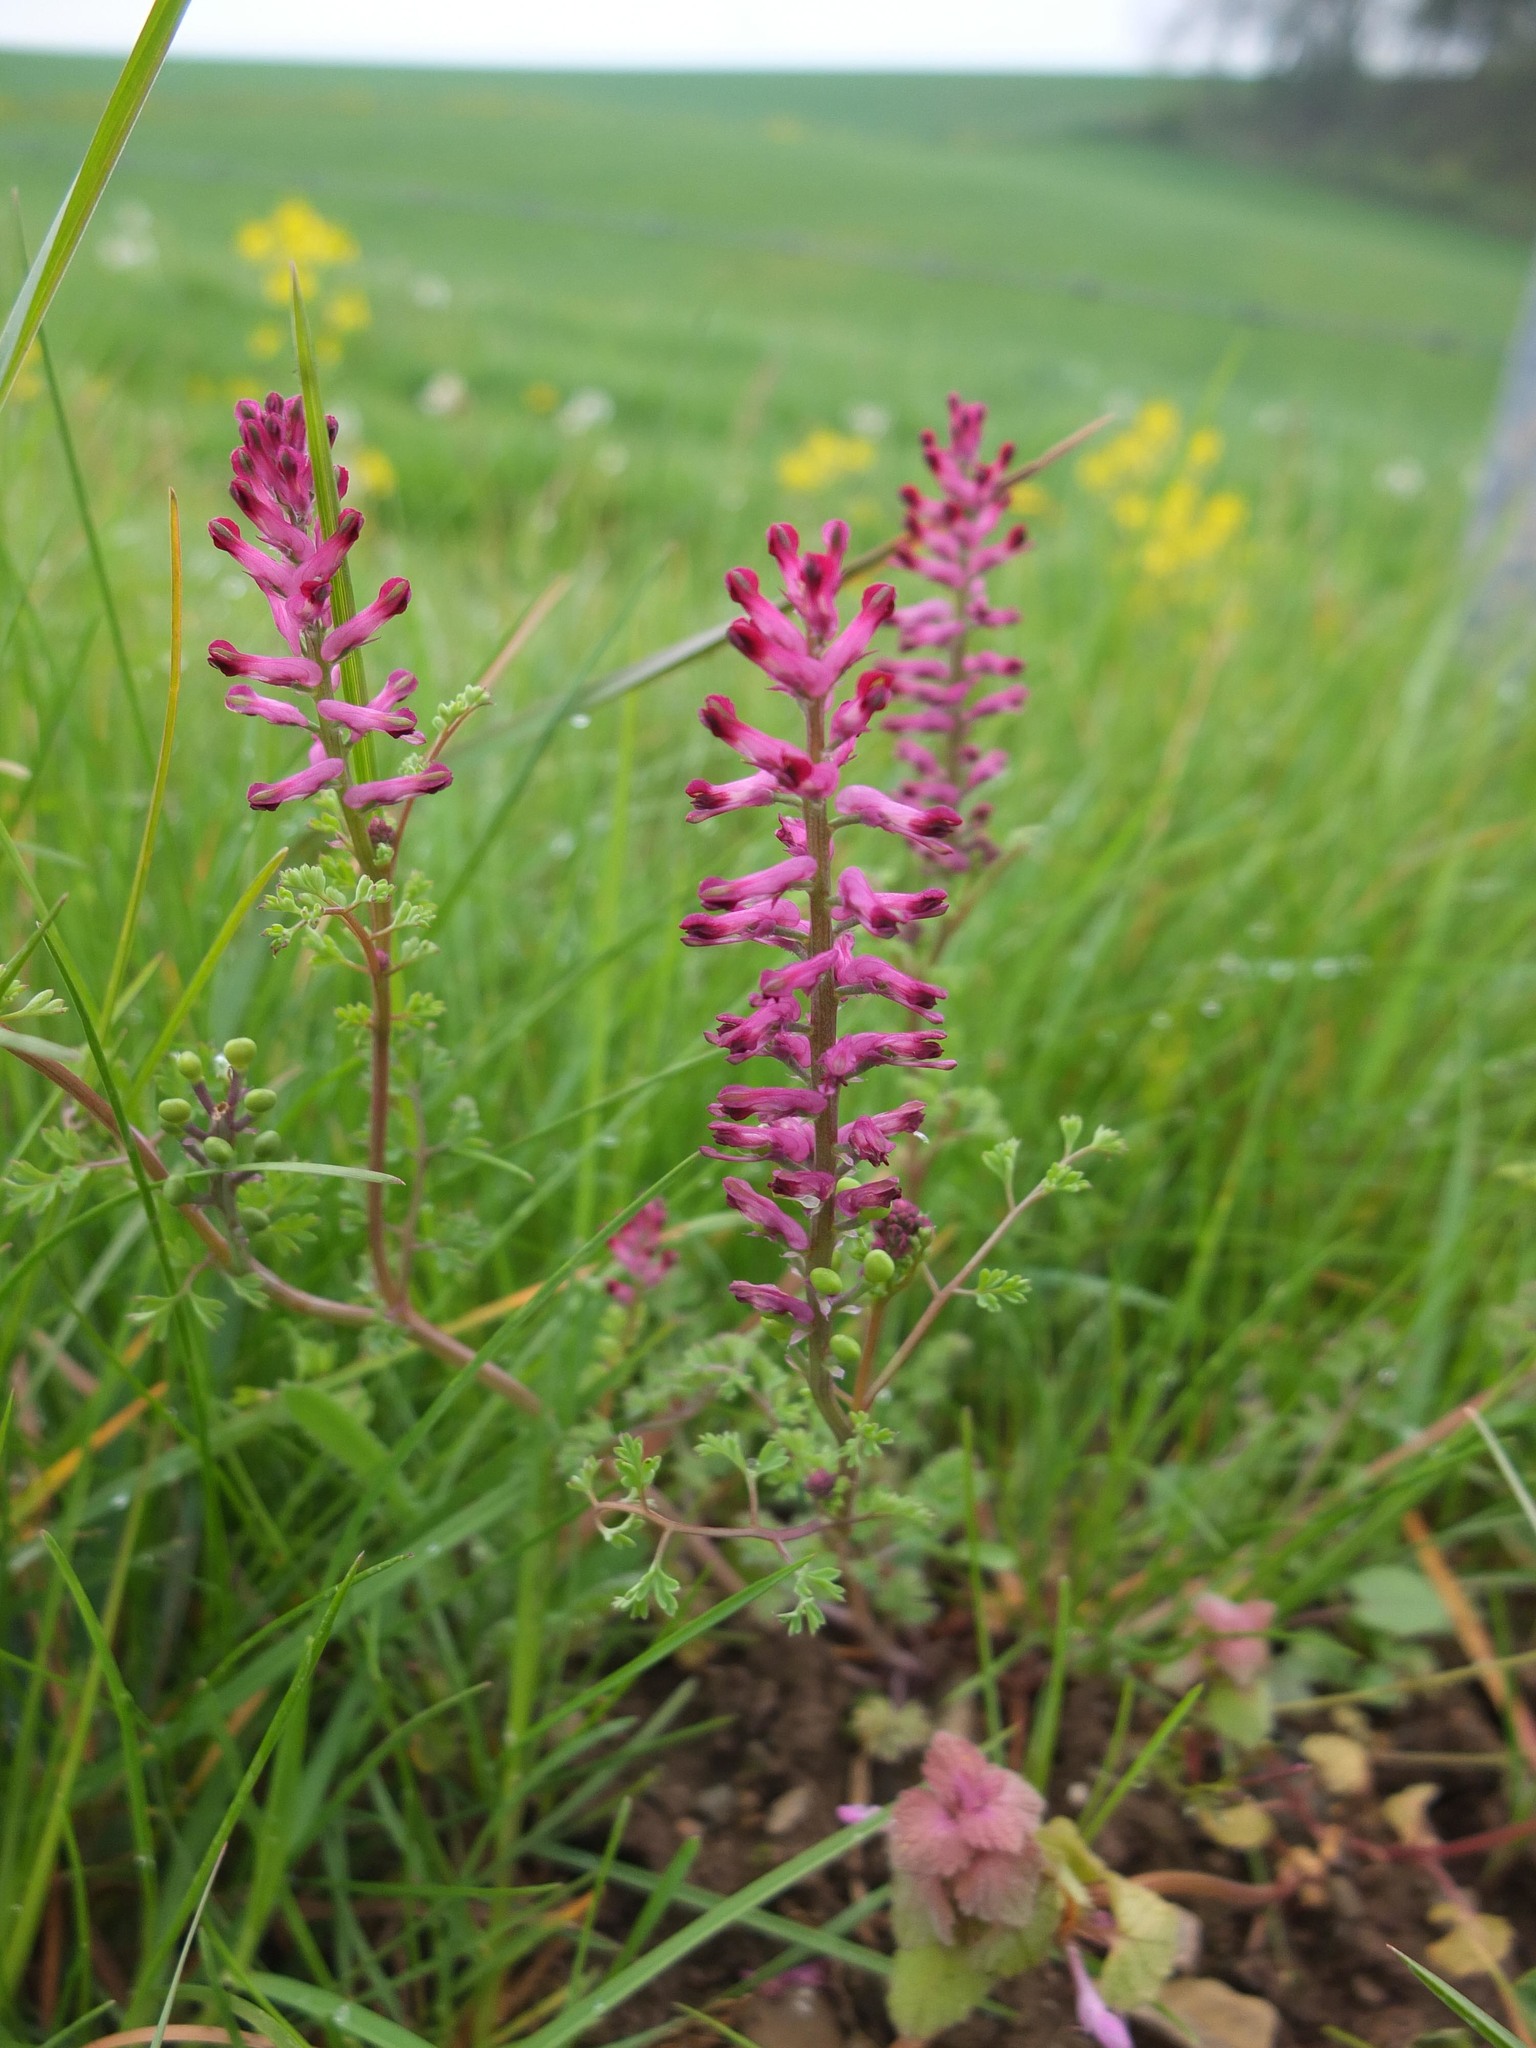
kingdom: Plantae
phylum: Tracheophyta
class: Magnoliopsida
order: Ranunculales
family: Papaveraceae
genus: Fumaria
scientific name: Fumaria officinalis
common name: Common fumitory
